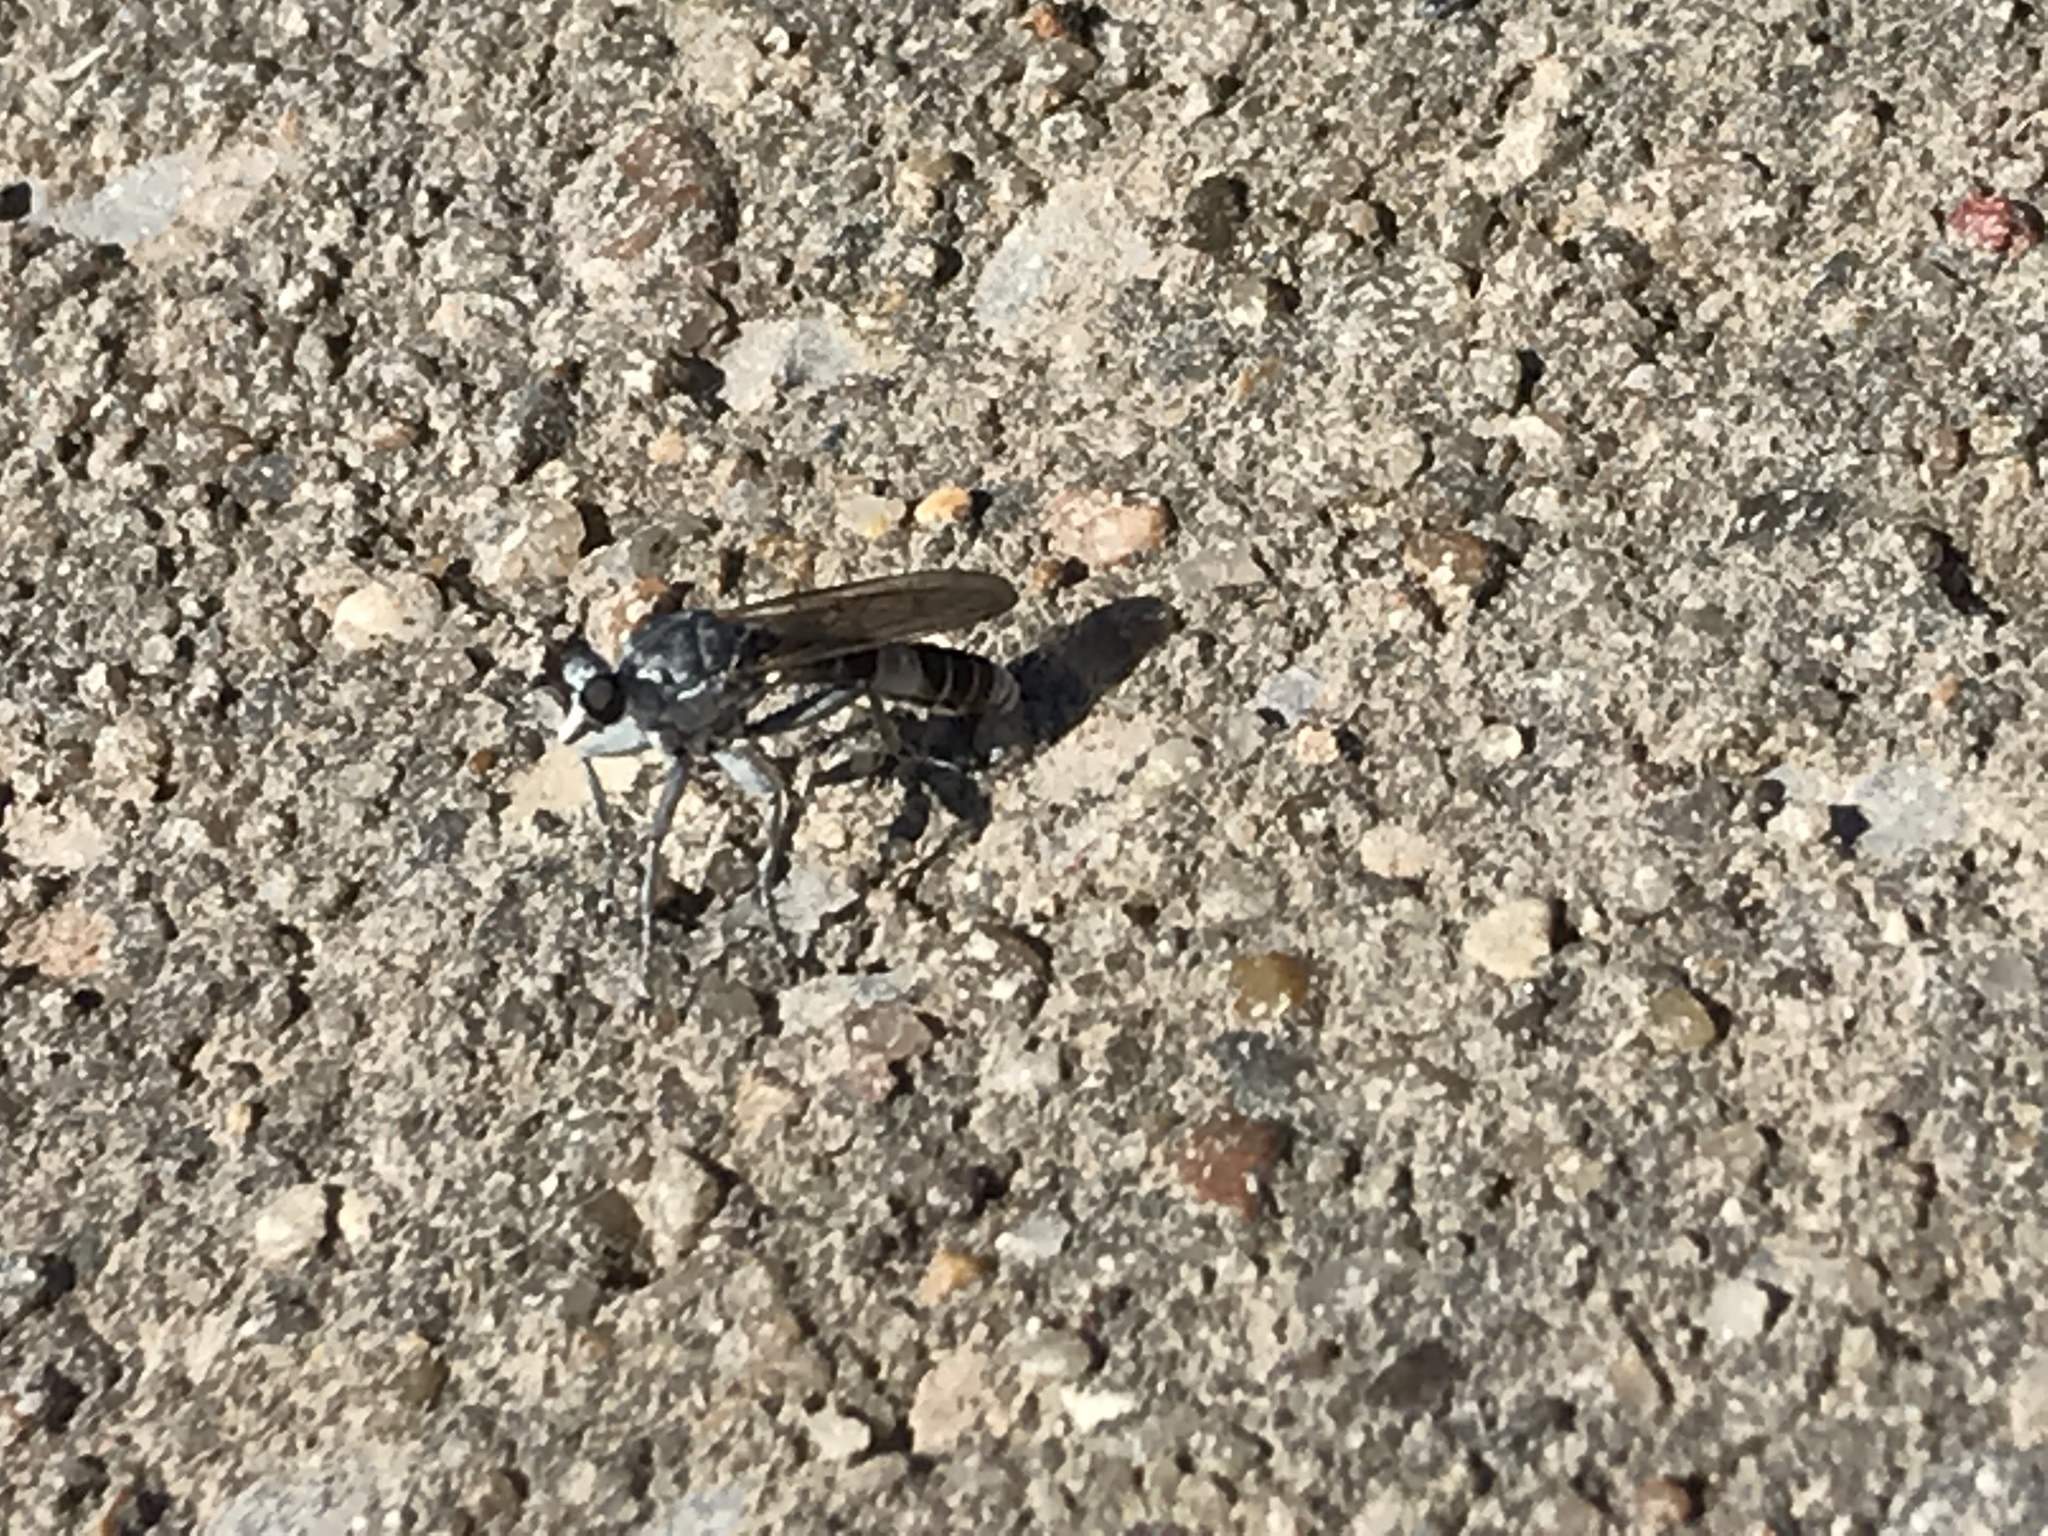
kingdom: Animalia
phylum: Arthropoda
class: Insecta
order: Diptera
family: Asilidae
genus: Stichopogon
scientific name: Stichopogon trifasciatus
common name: Three-banded robber fly
